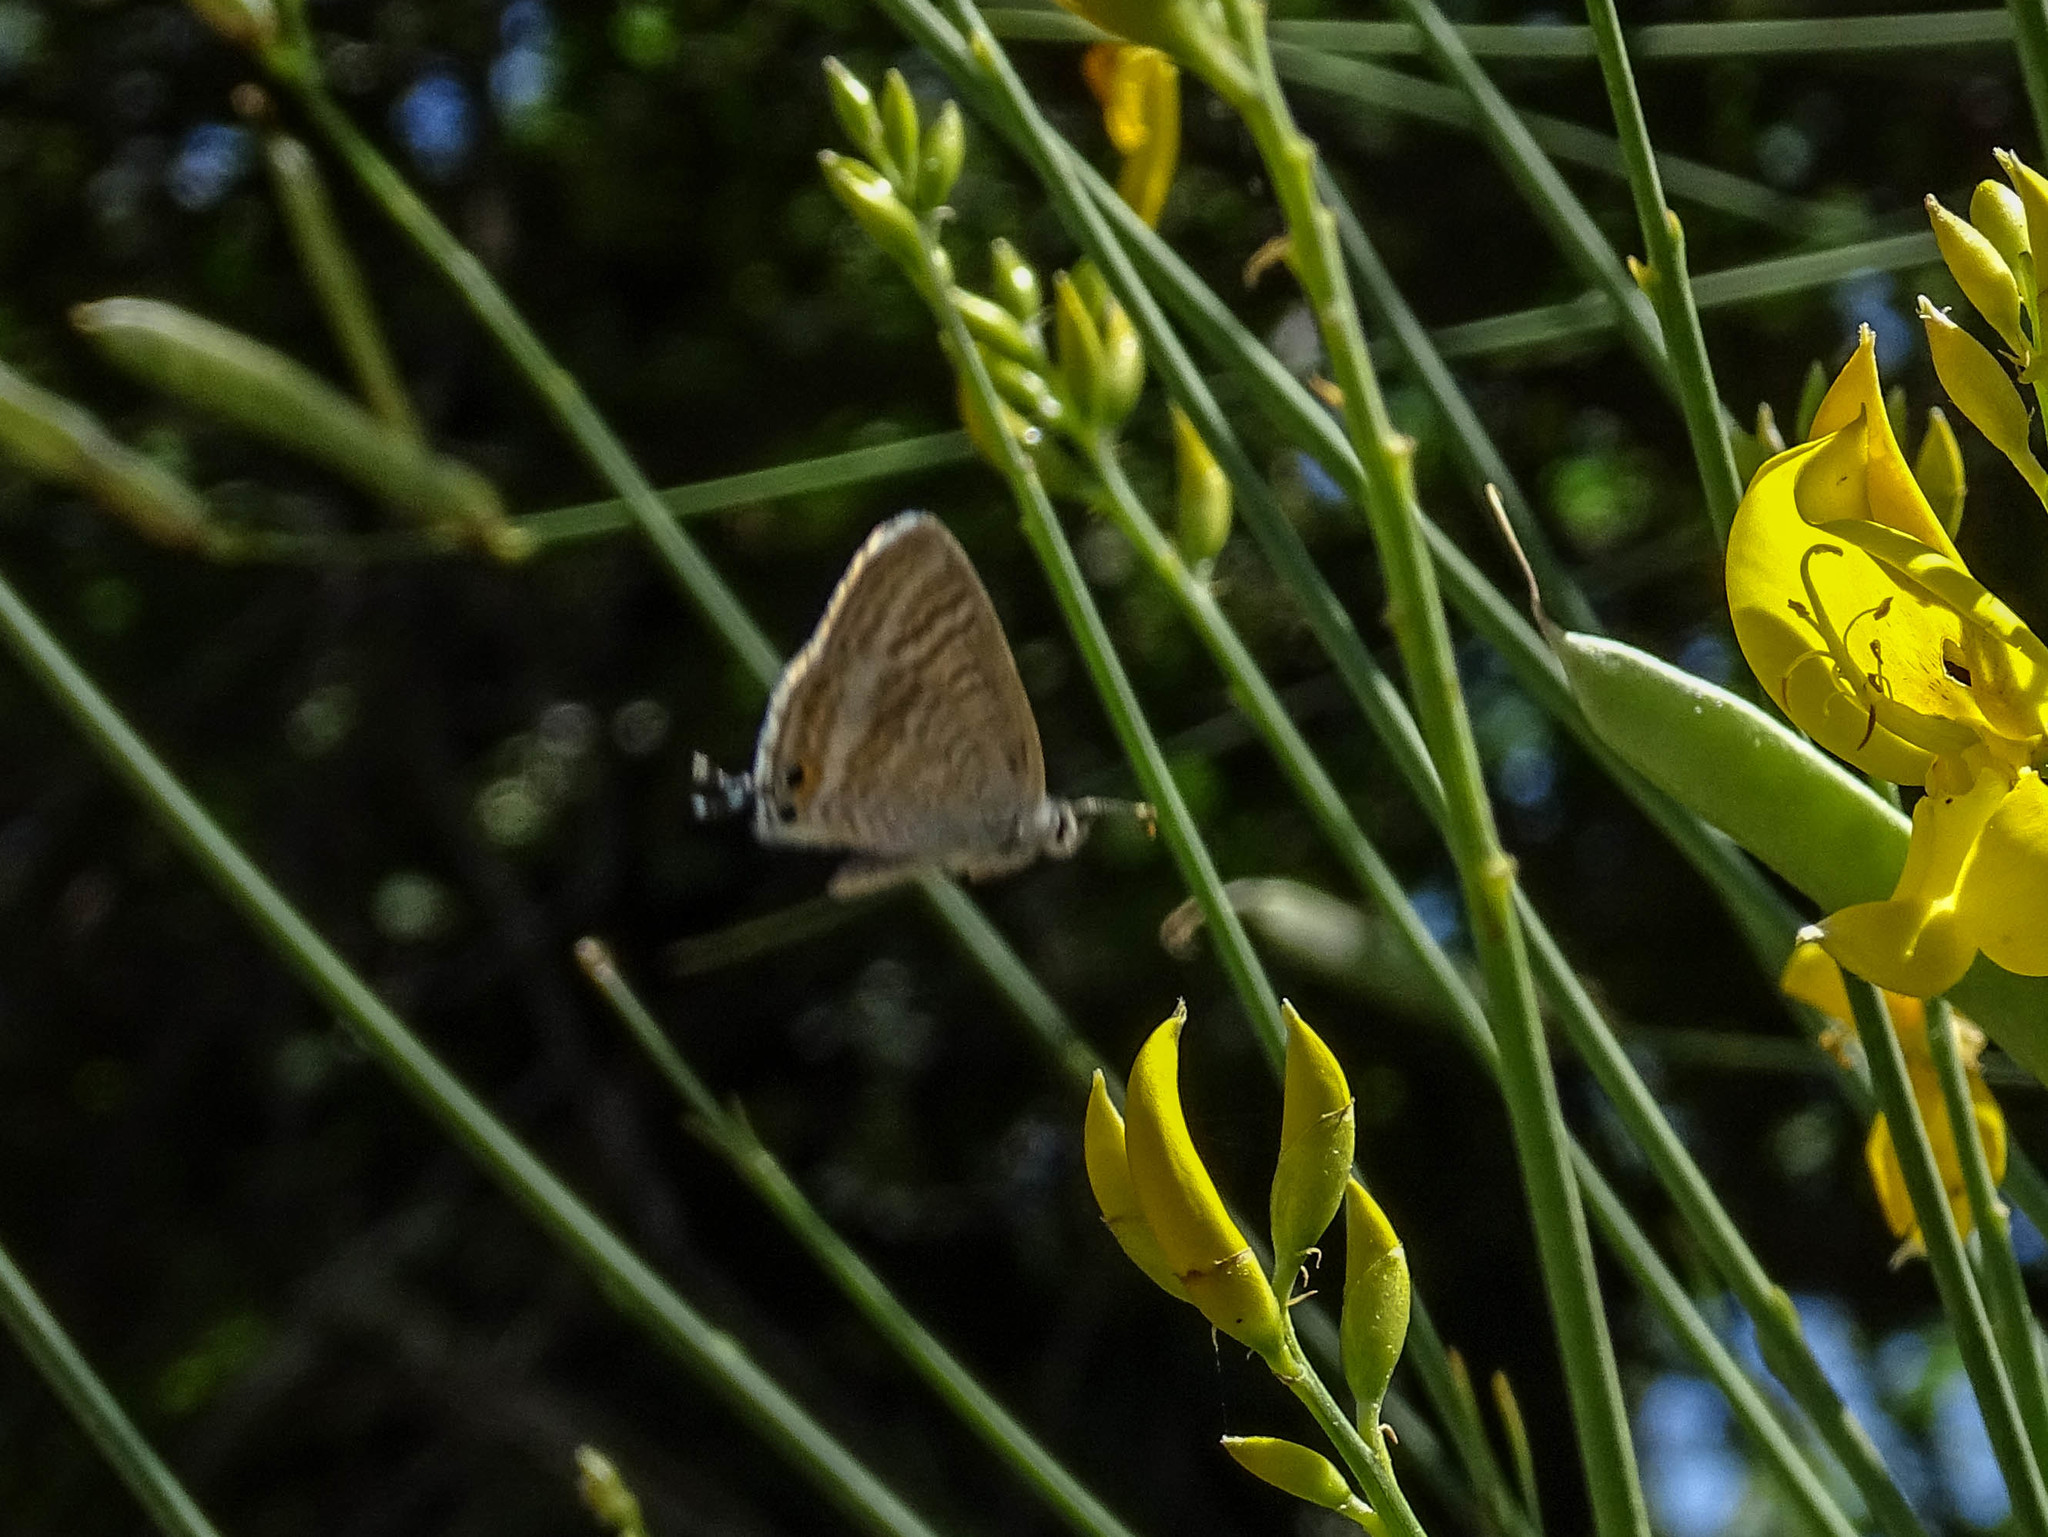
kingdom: Animalia
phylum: Arthropoda
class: Insecta
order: Lepidoptera
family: Lycaenidae
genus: Lampides
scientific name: Lampides boeticus
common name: Long-tailed blue
